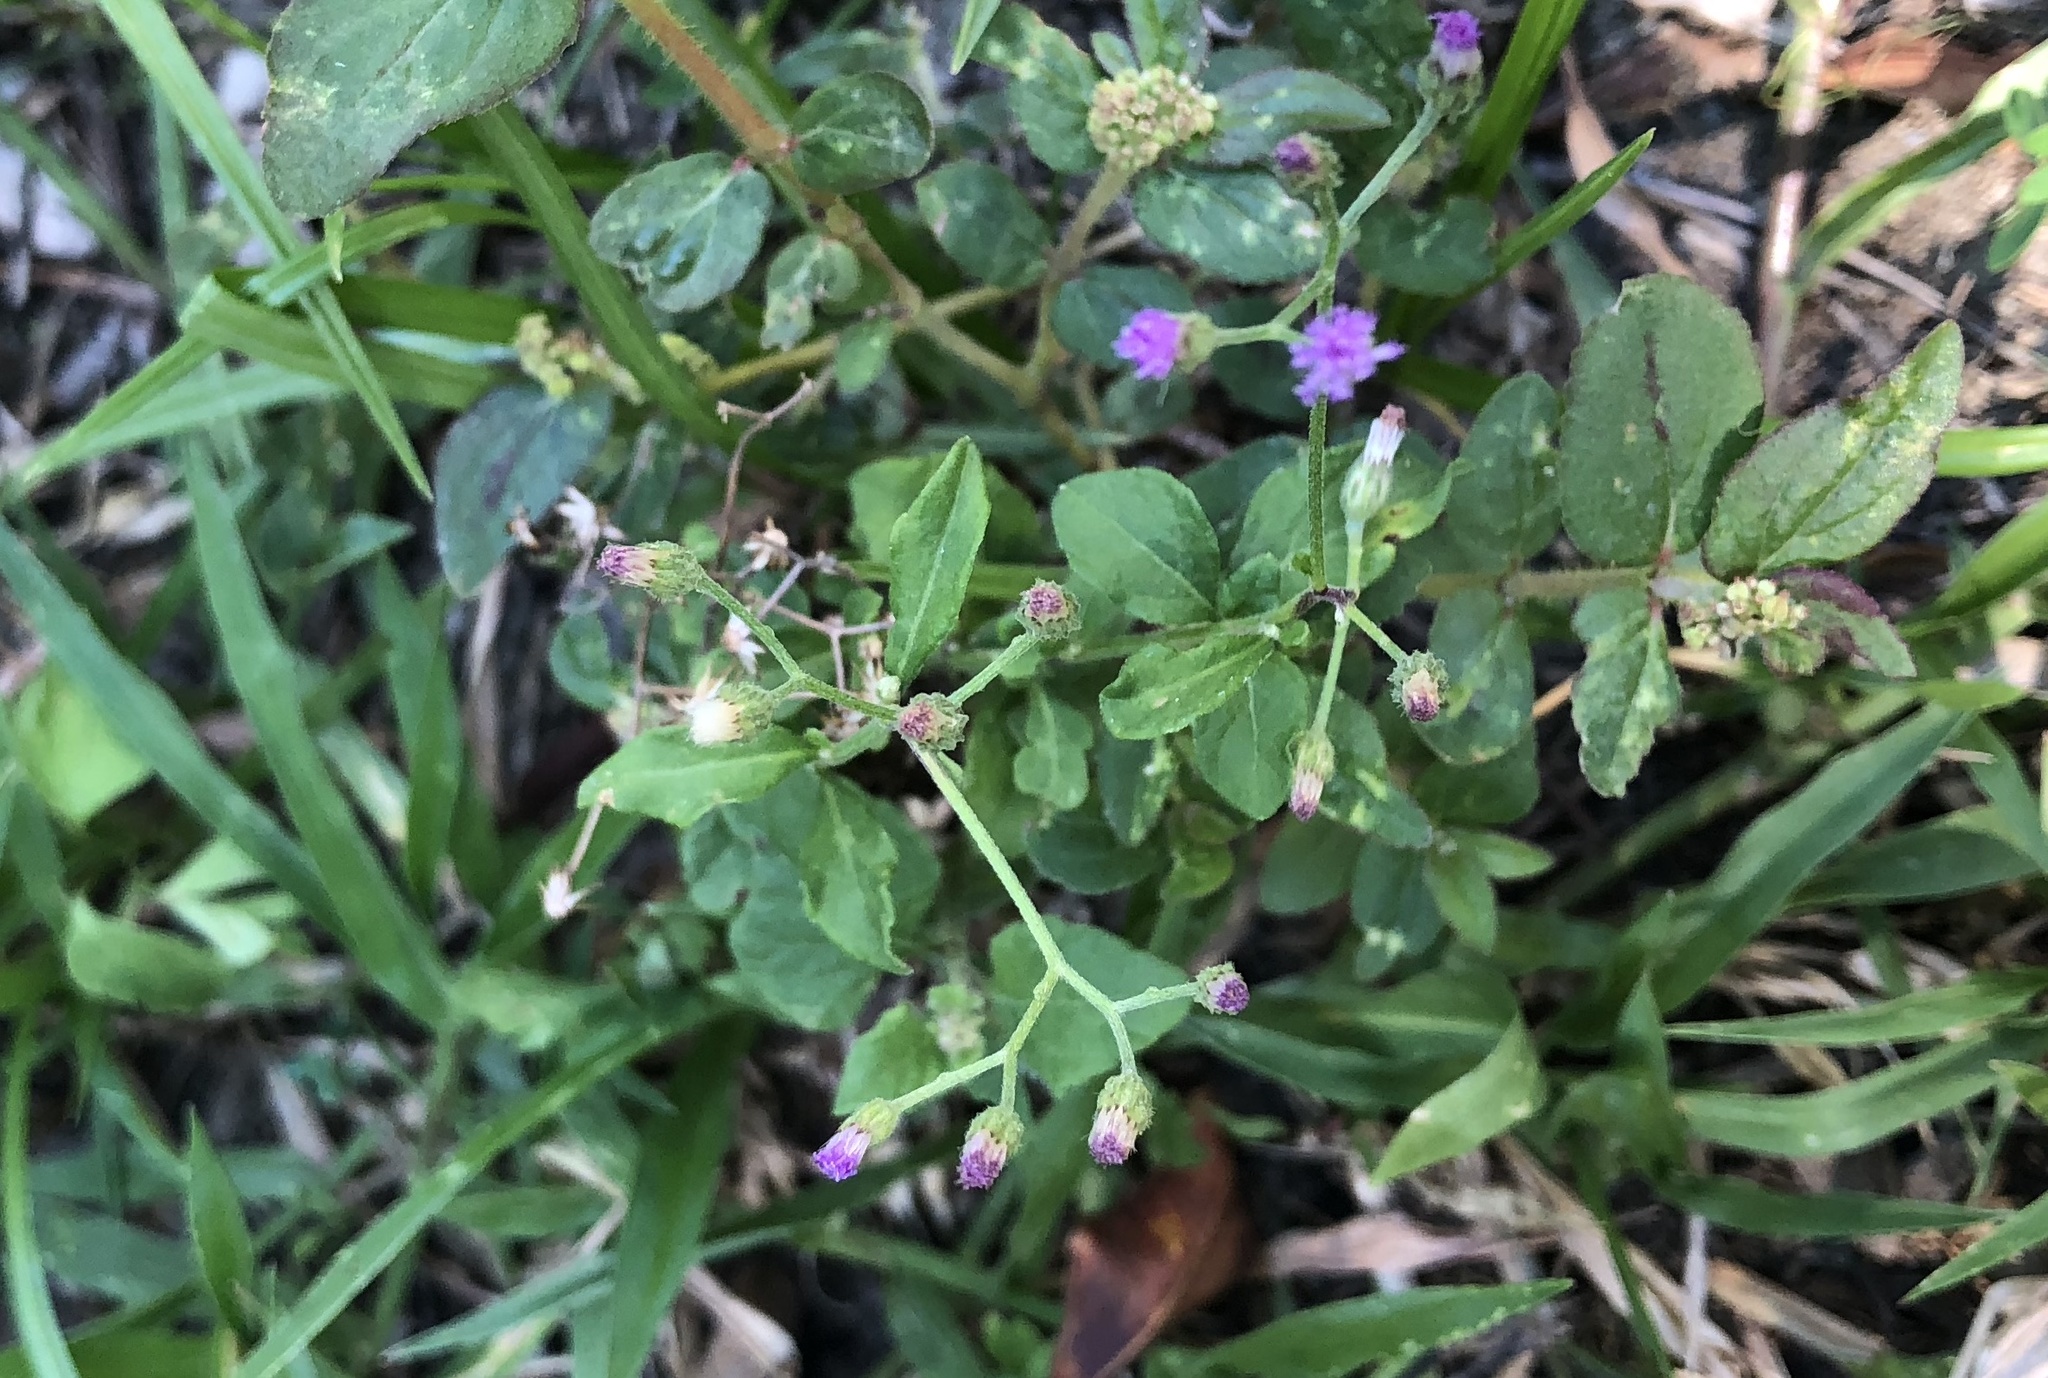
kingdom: Plantae
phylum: Tracheophyta
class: Magnoliopsida
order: Asterales
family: Asteraceae
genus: Cyanthillium
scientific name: Cyanthillium cinereum
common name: Little ironweed
